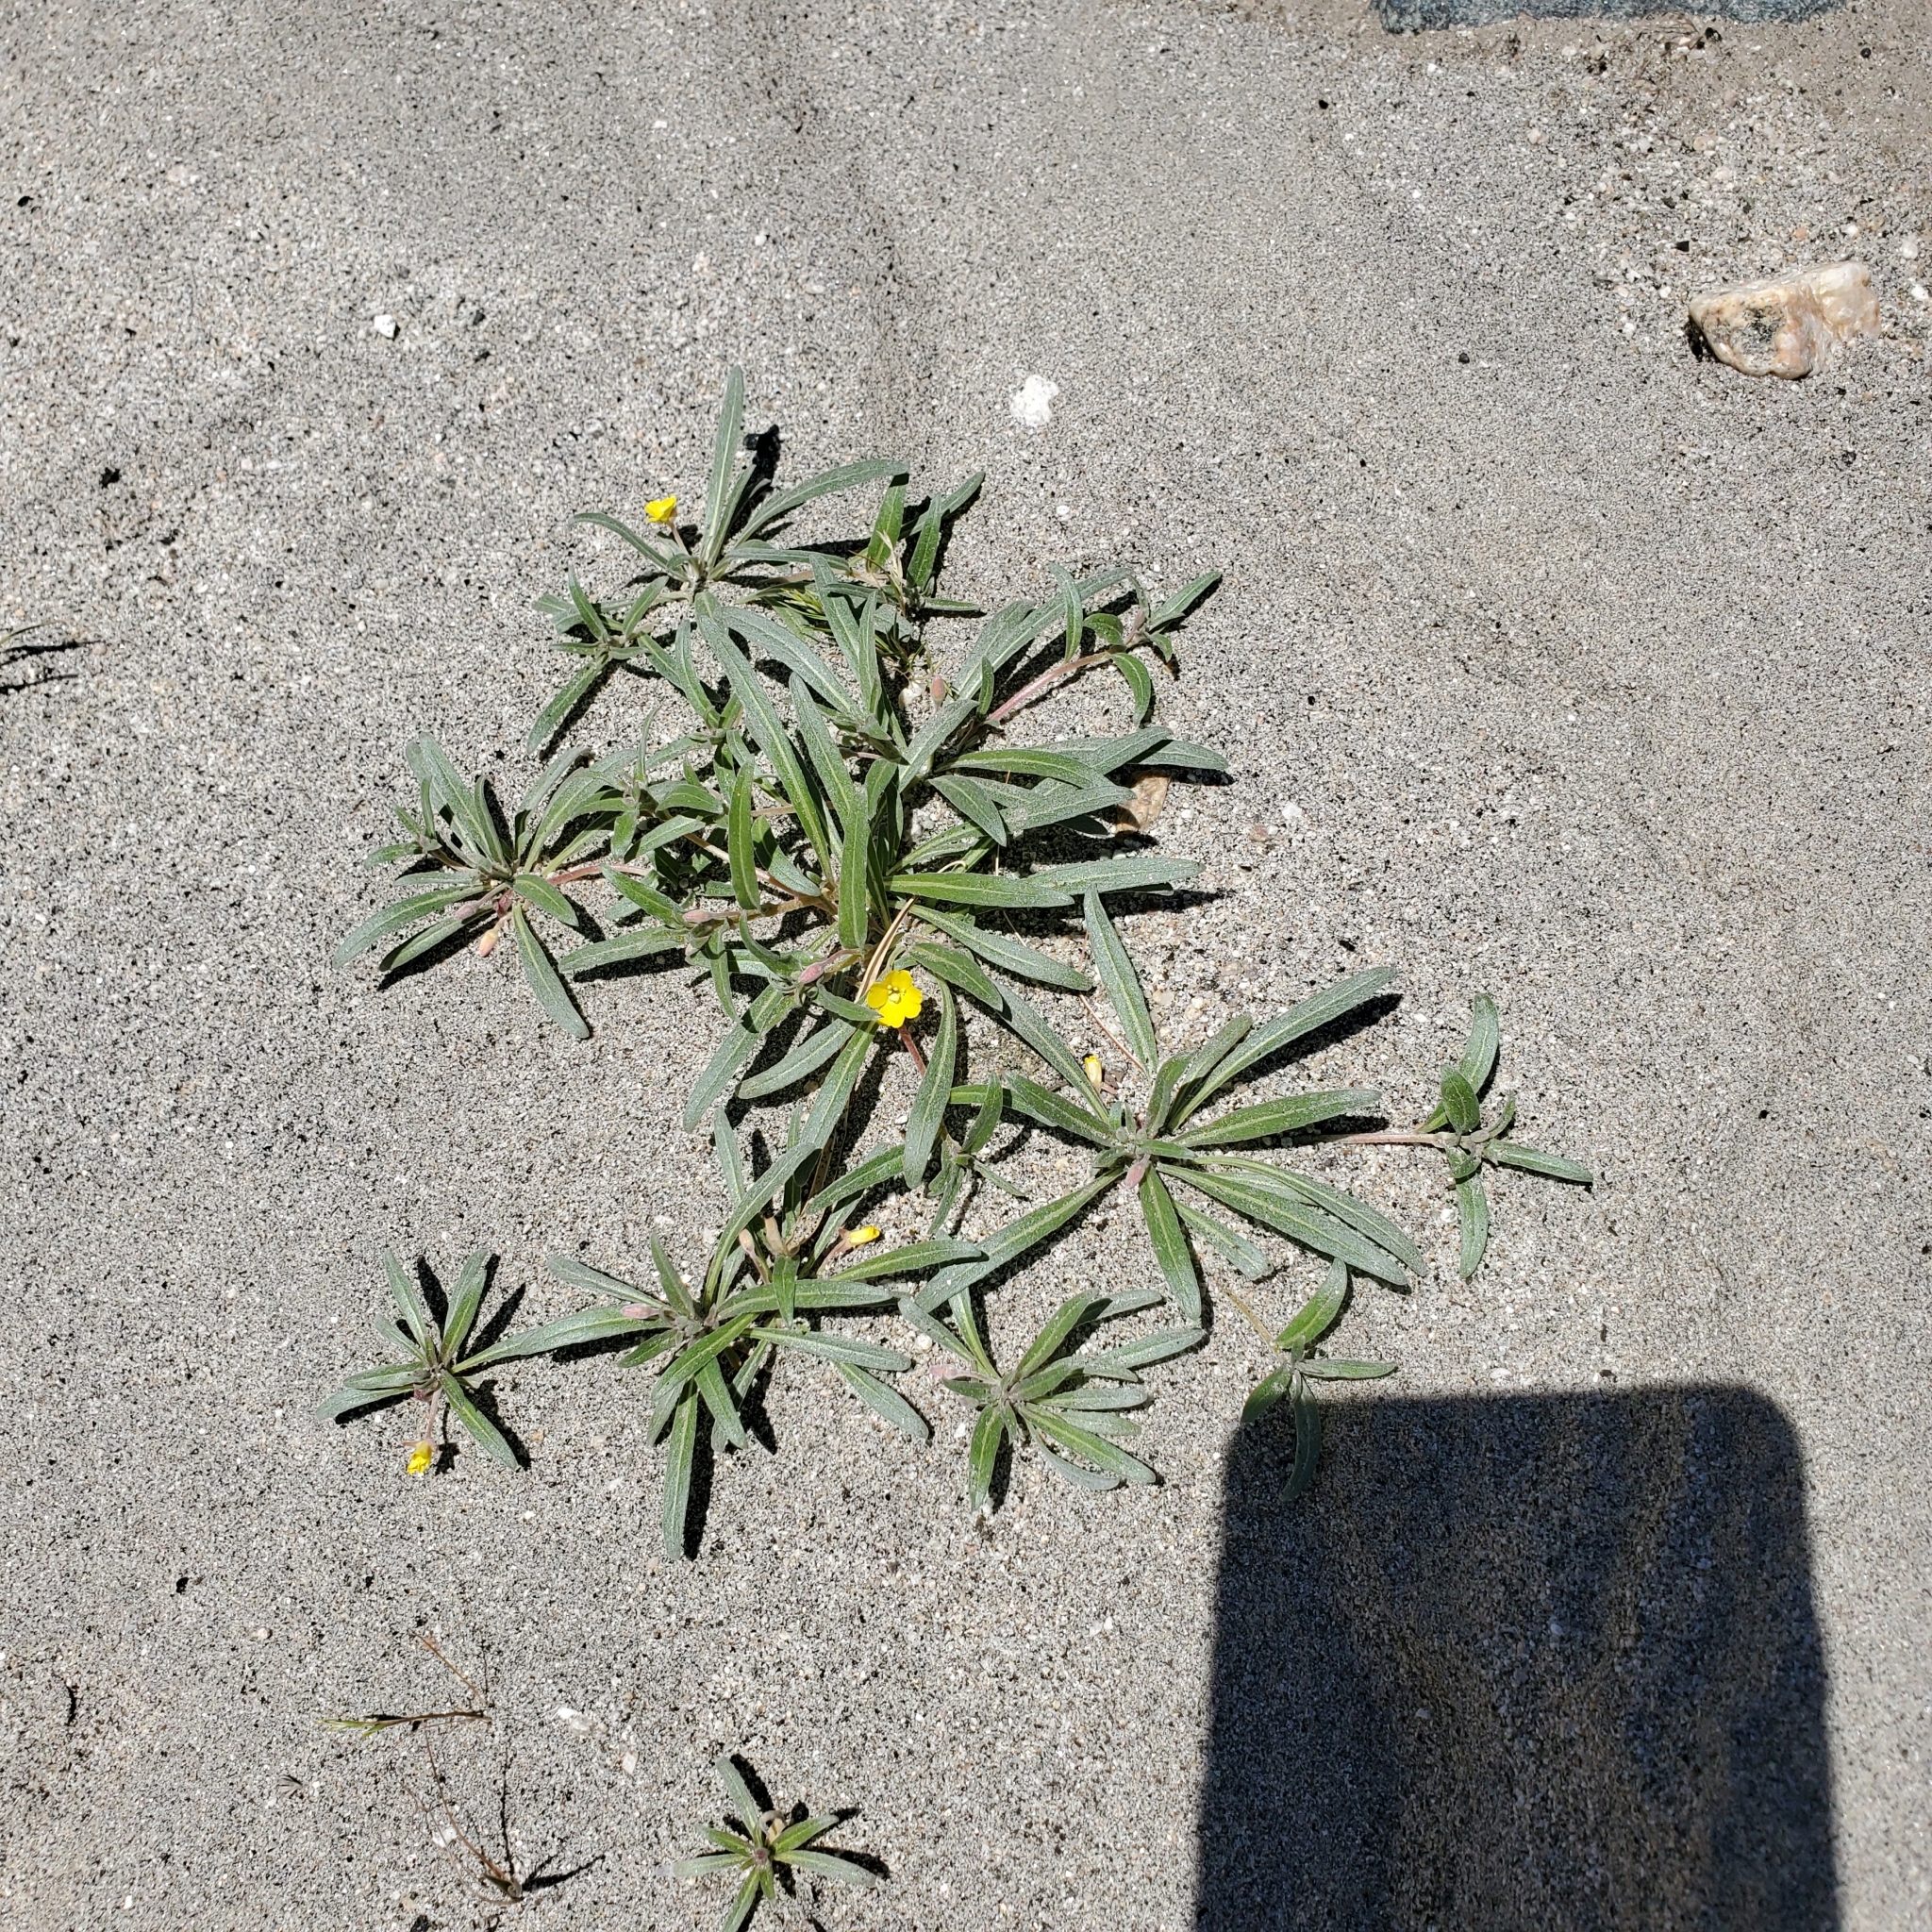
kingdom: Plantae
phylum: Tracheophyta
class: Magnoliopsida
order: Myrtales
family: Onagraceae
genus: Camissoniopsis
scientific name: Camissoniopsis pallida
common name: Paleyellow suncup
